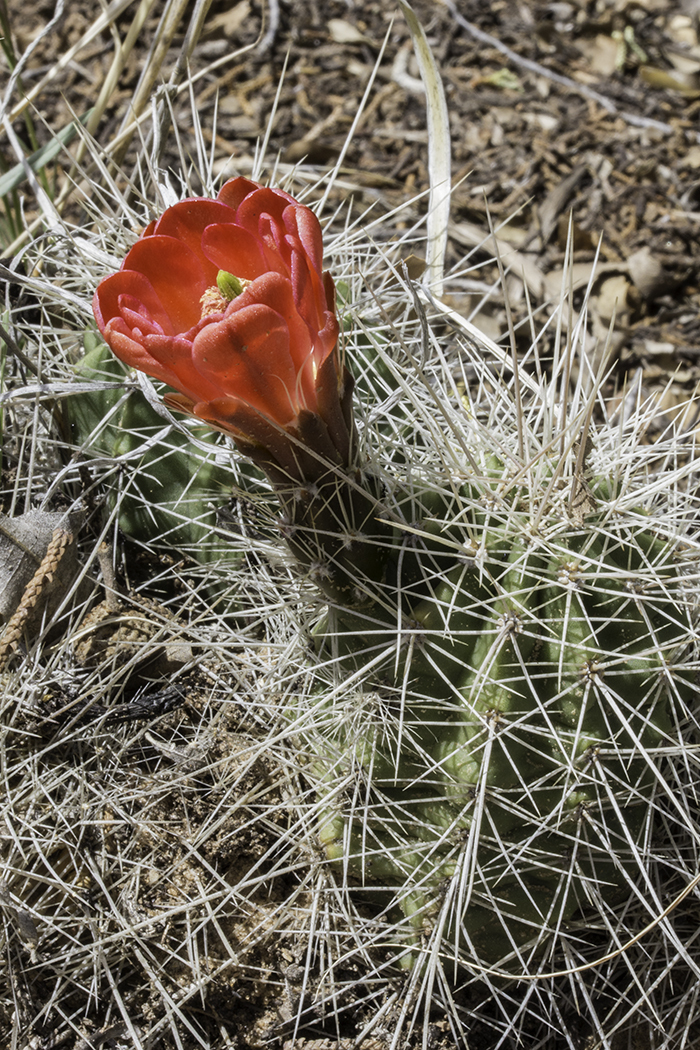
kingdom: Plantae
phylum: Tracheophyta
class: Magnoliopsida
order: Caryophyllales
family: Cactaceae
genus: Echinocereus
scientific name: Echinocereus coccineus
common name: Scarlet hedgehog cactus
